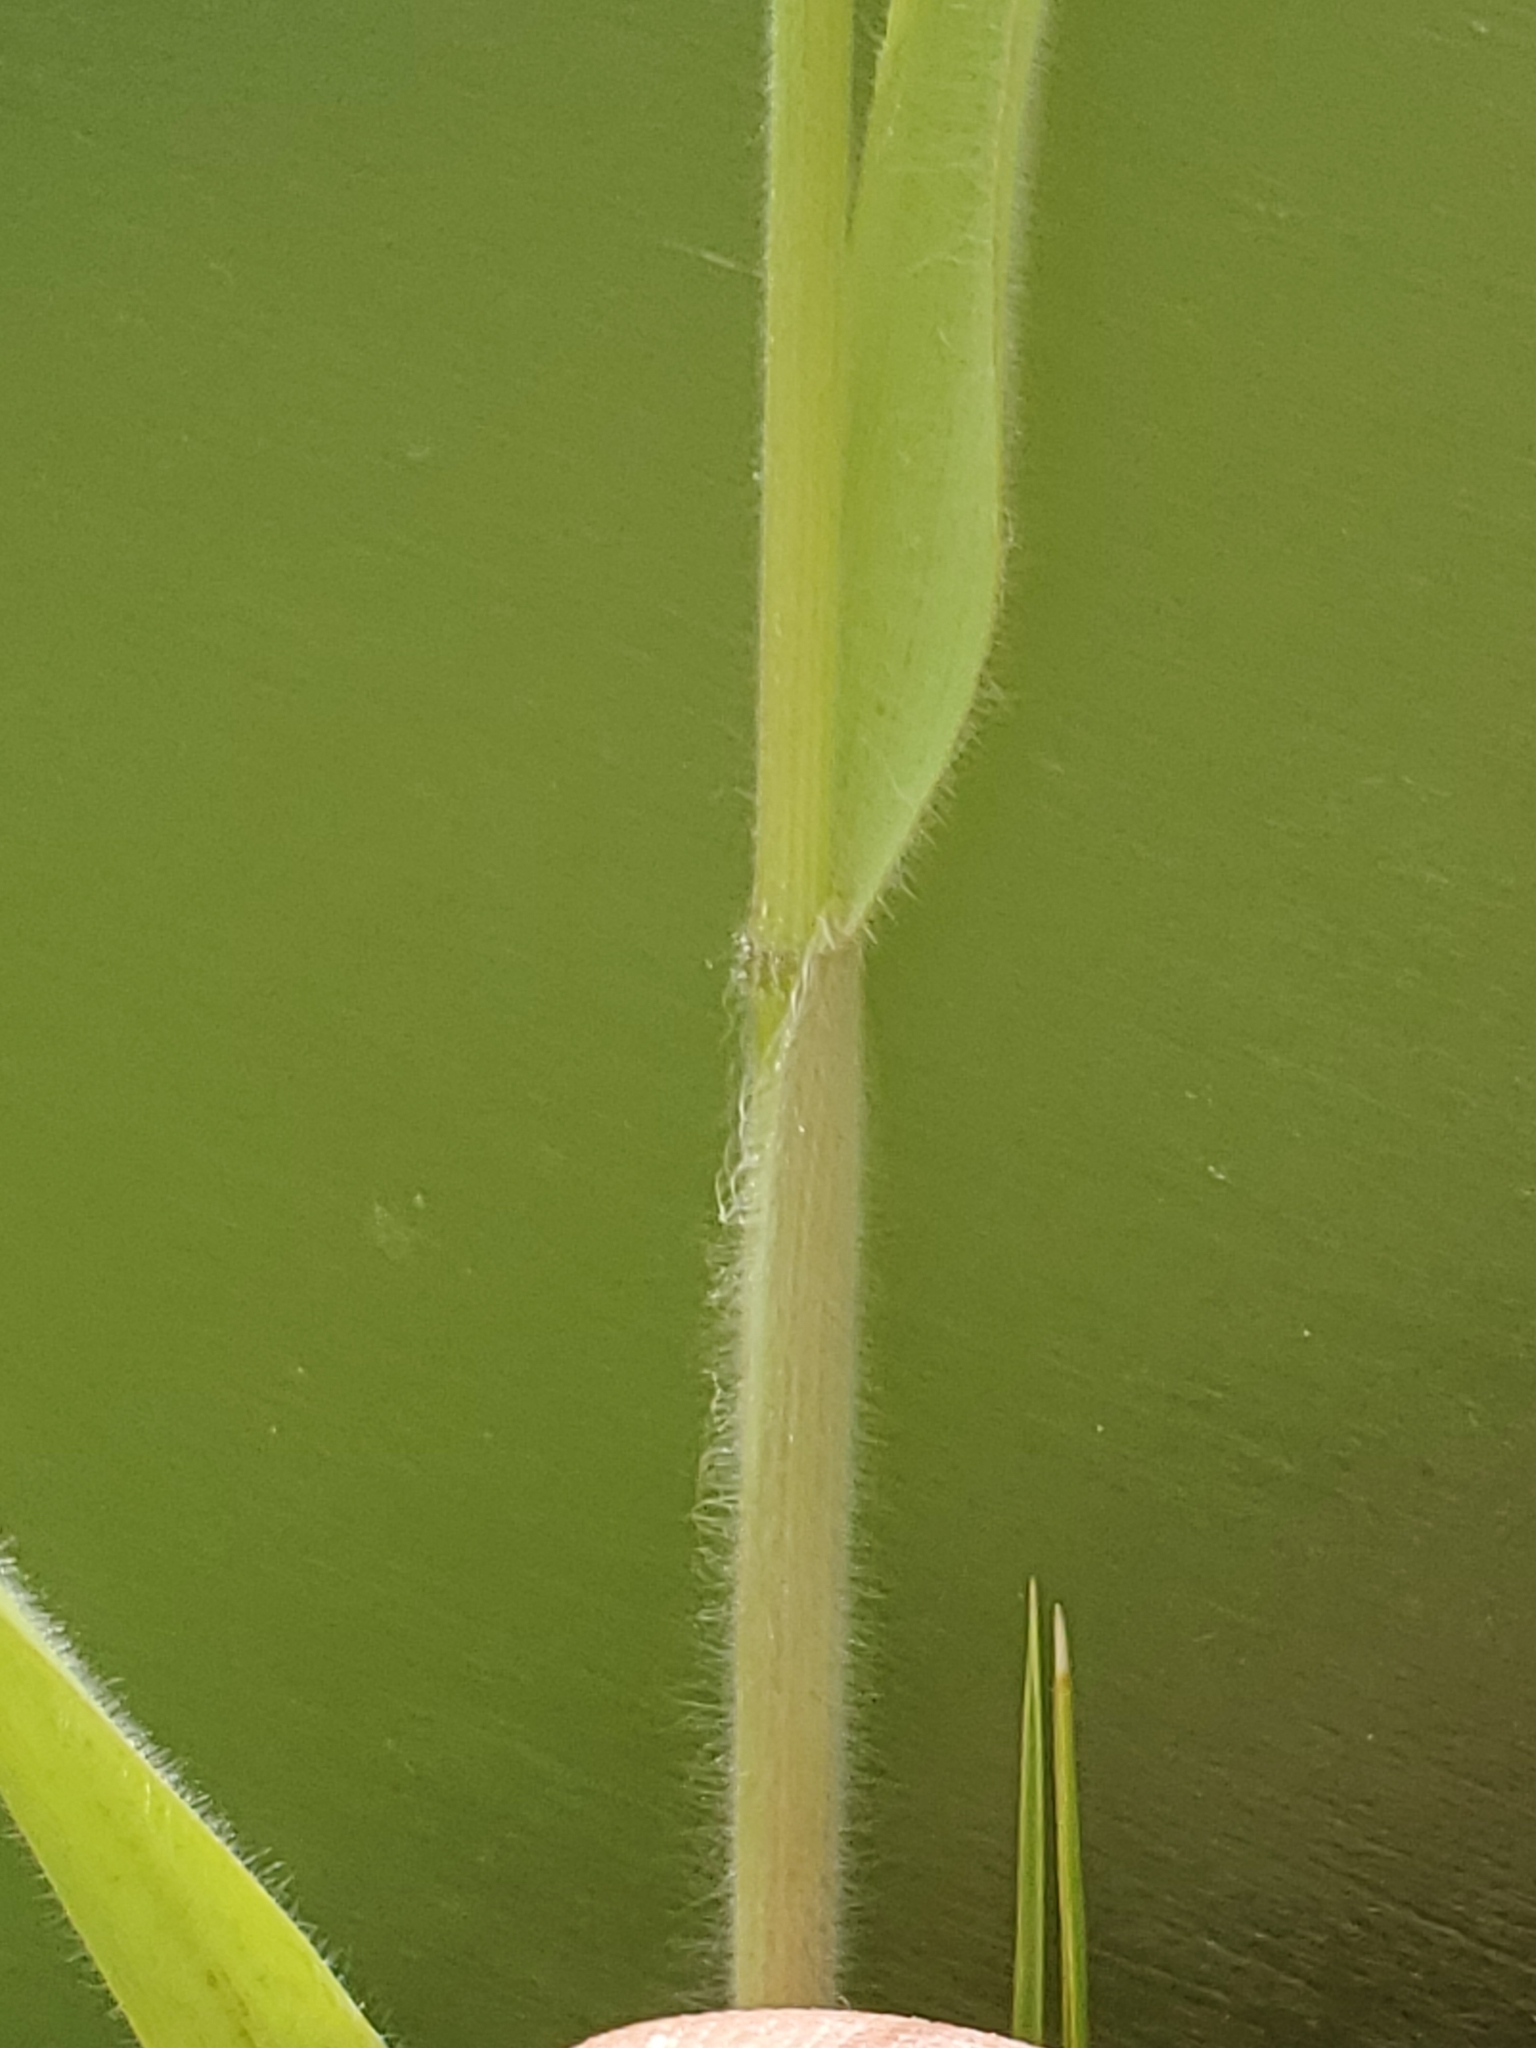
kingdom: Plantae
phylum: Tracheophyta
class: Liliopsida
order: Poales
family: Poaceae
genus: Bromus
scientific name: Bromus japonicus
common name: Japanese brome
